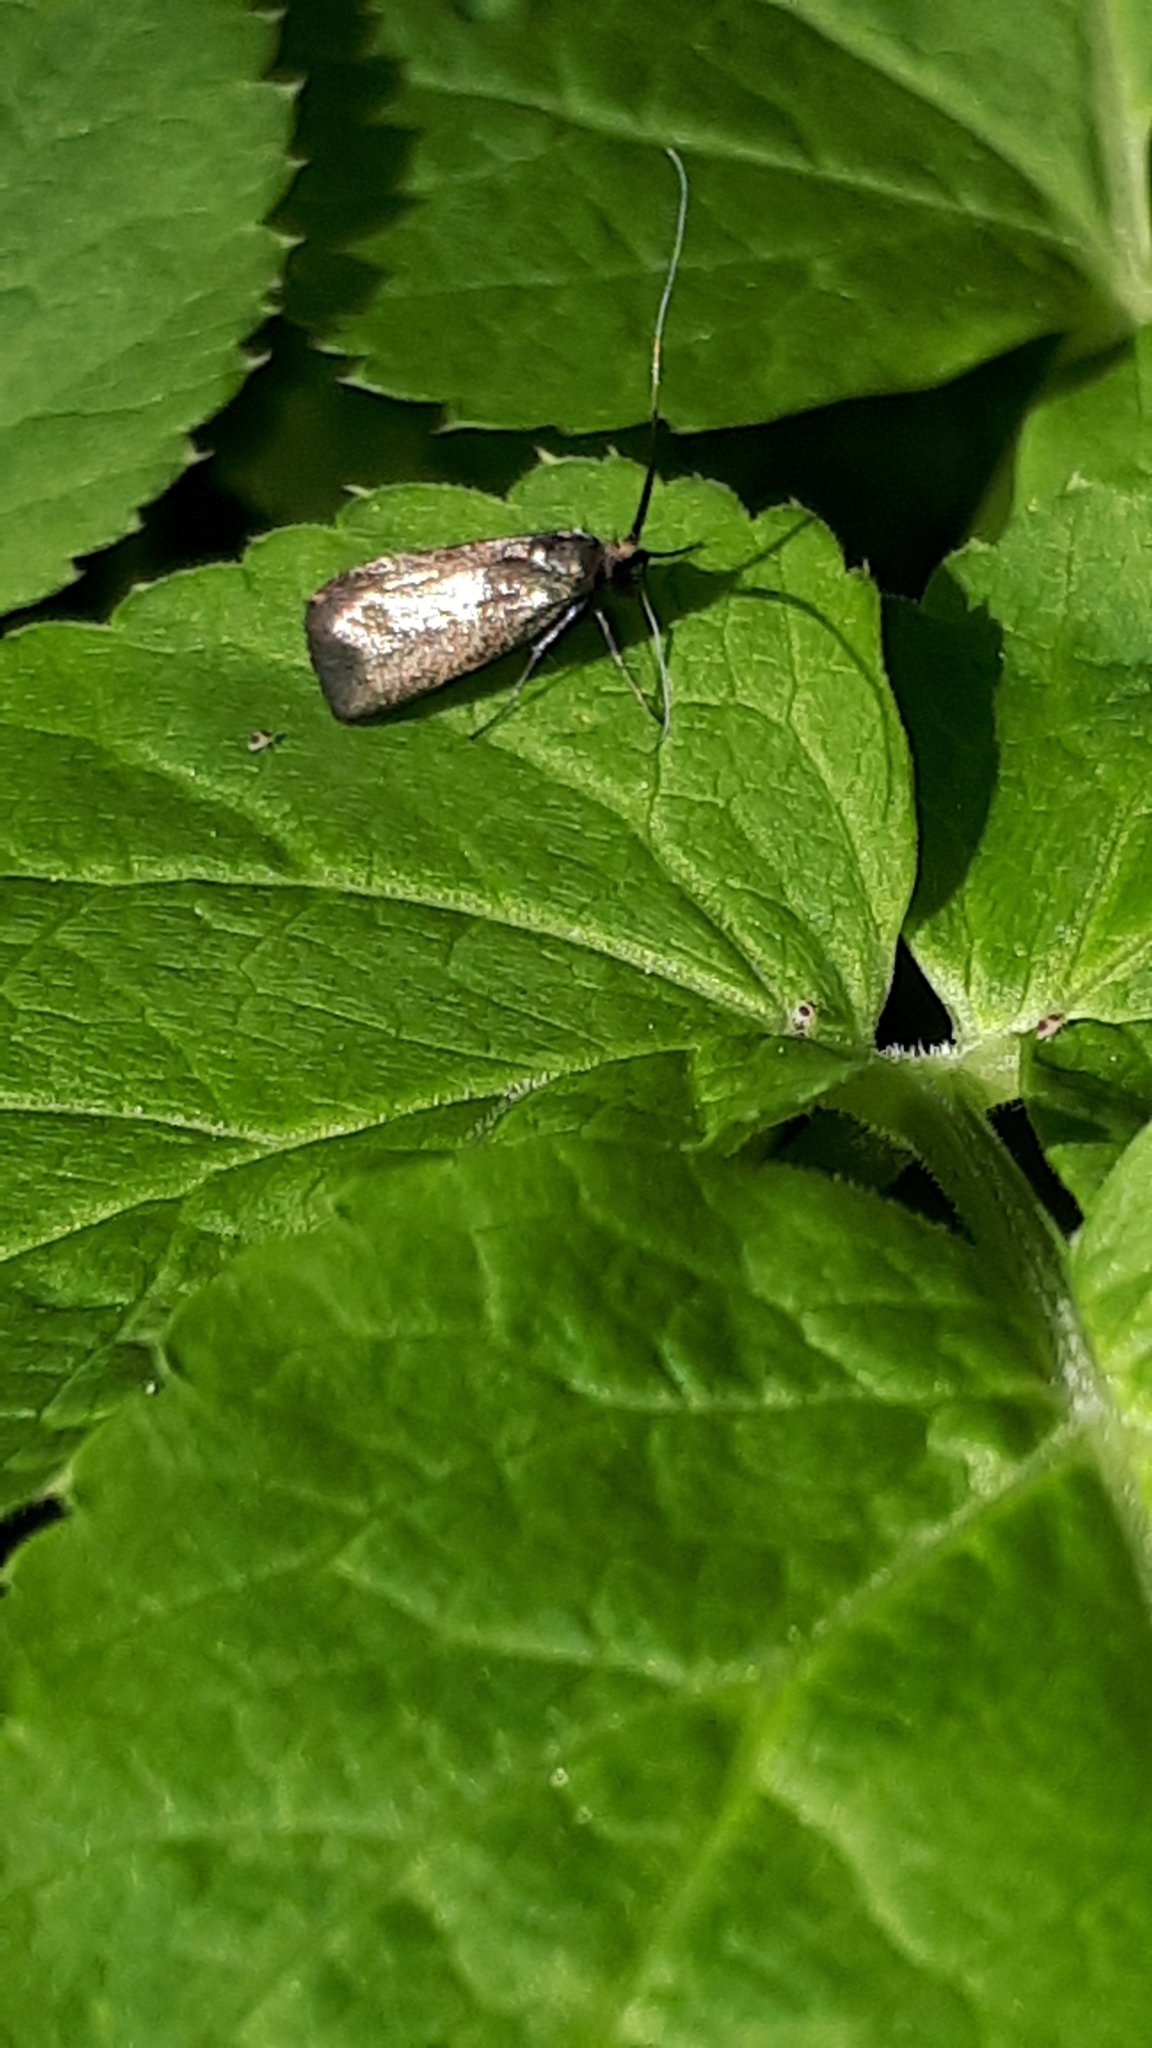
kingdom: Animalia
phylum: Arthropoda
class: Insecta
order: Lepidoptera
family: Adelidae
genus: Adela
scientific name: Adela viridella
